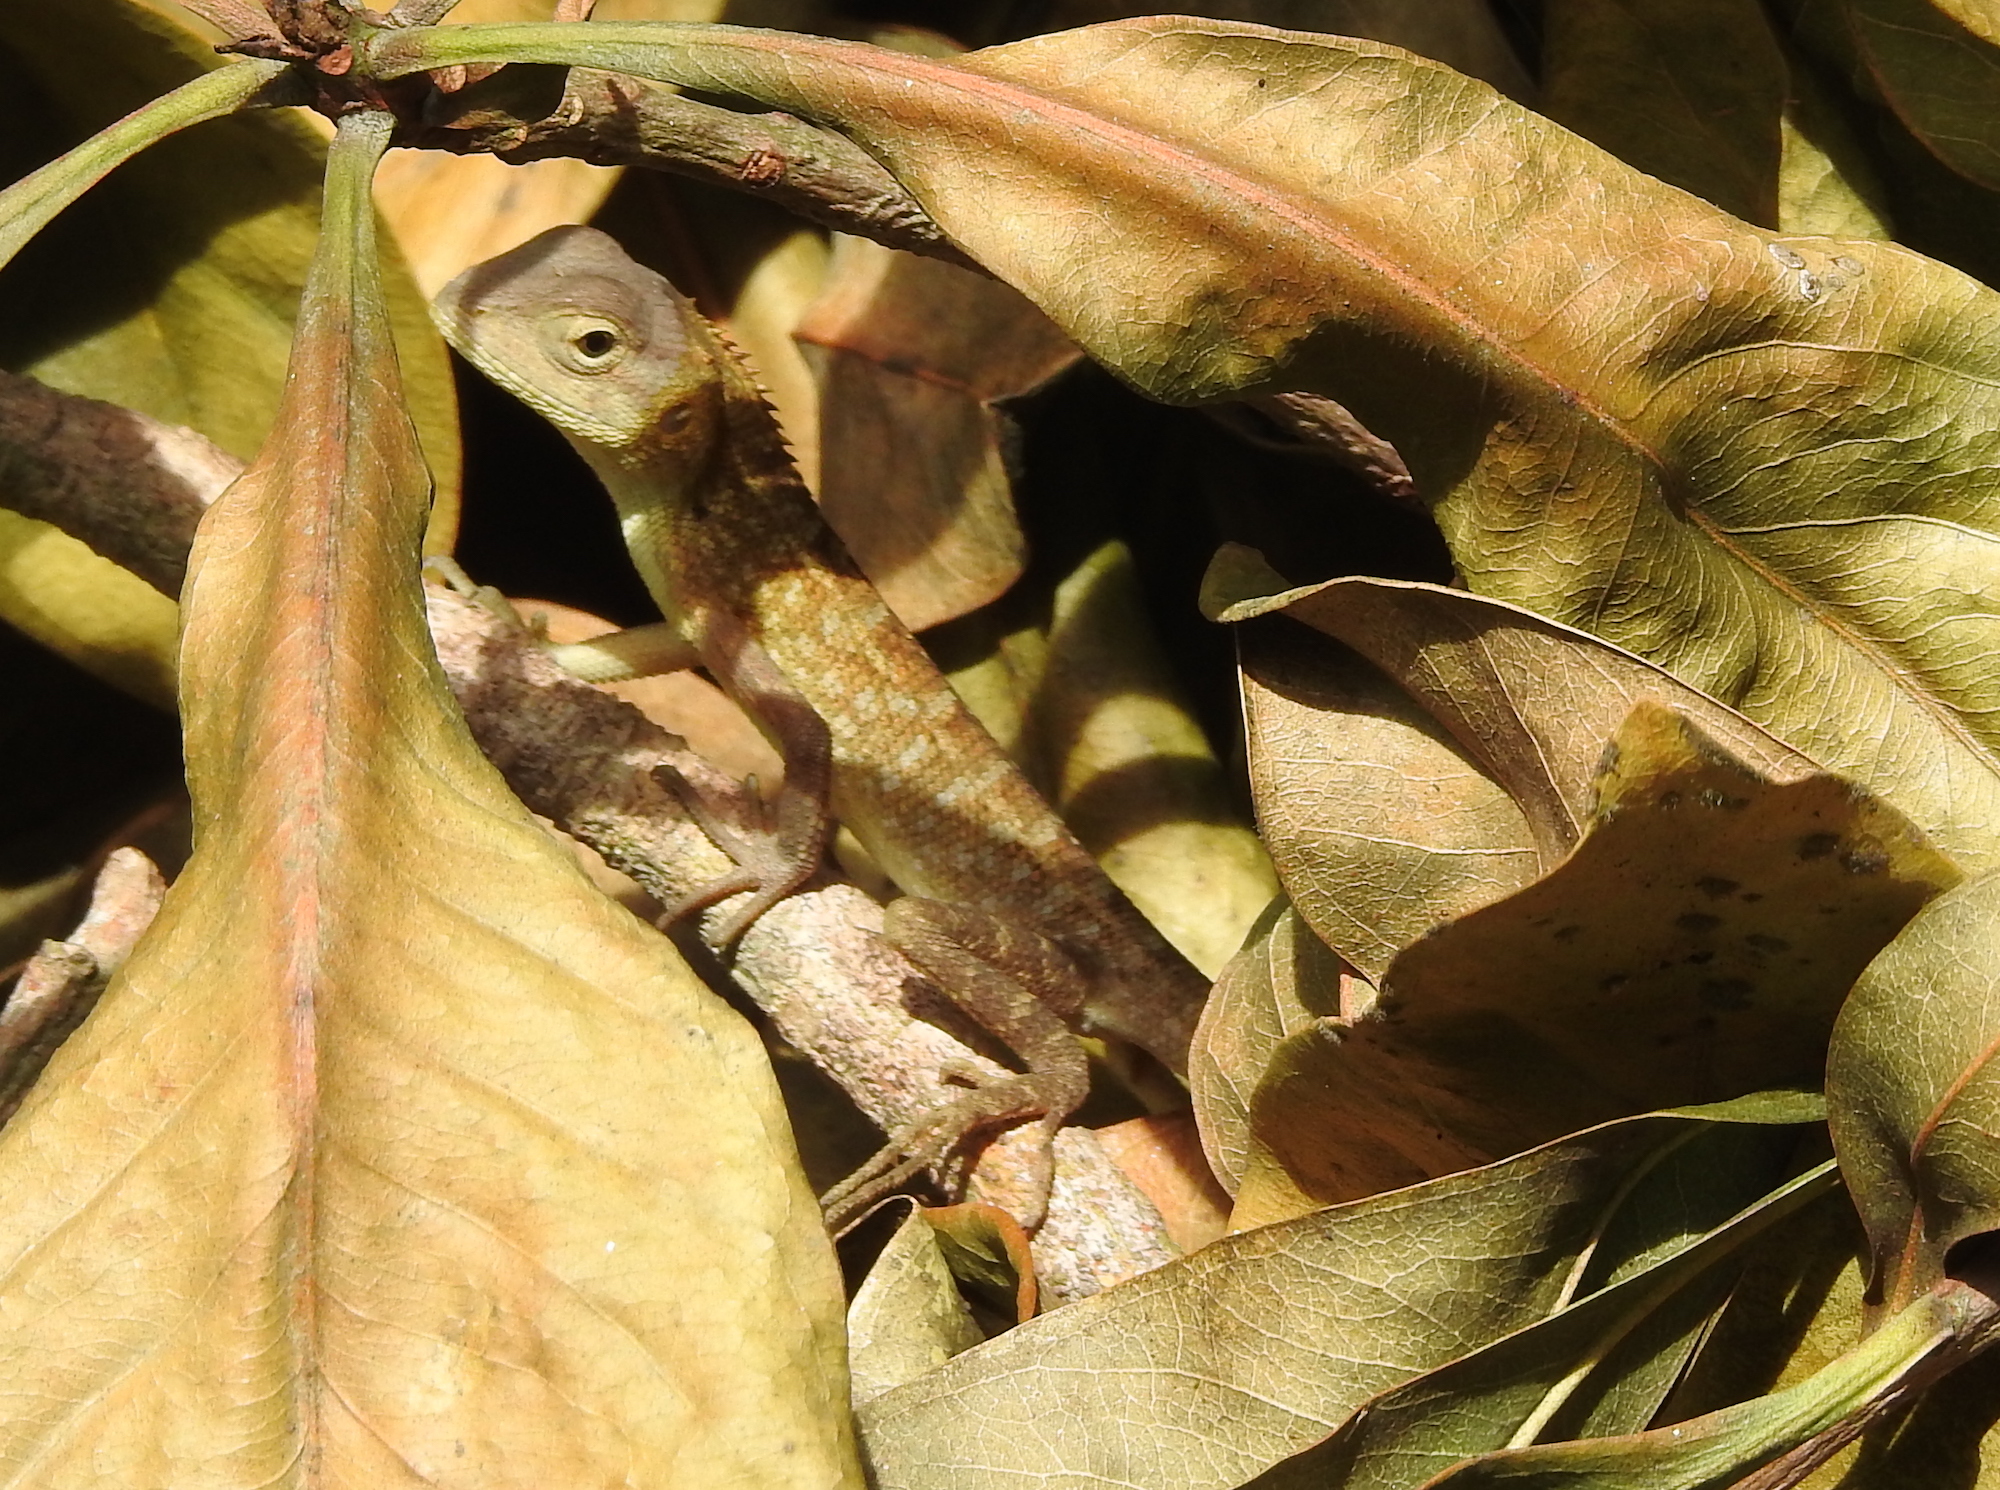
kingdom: Animalia
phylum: Chordata
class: Squamata
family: Agamidae
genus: Calotes
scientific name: Calotes versicolor
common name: Oriental garden lizard
